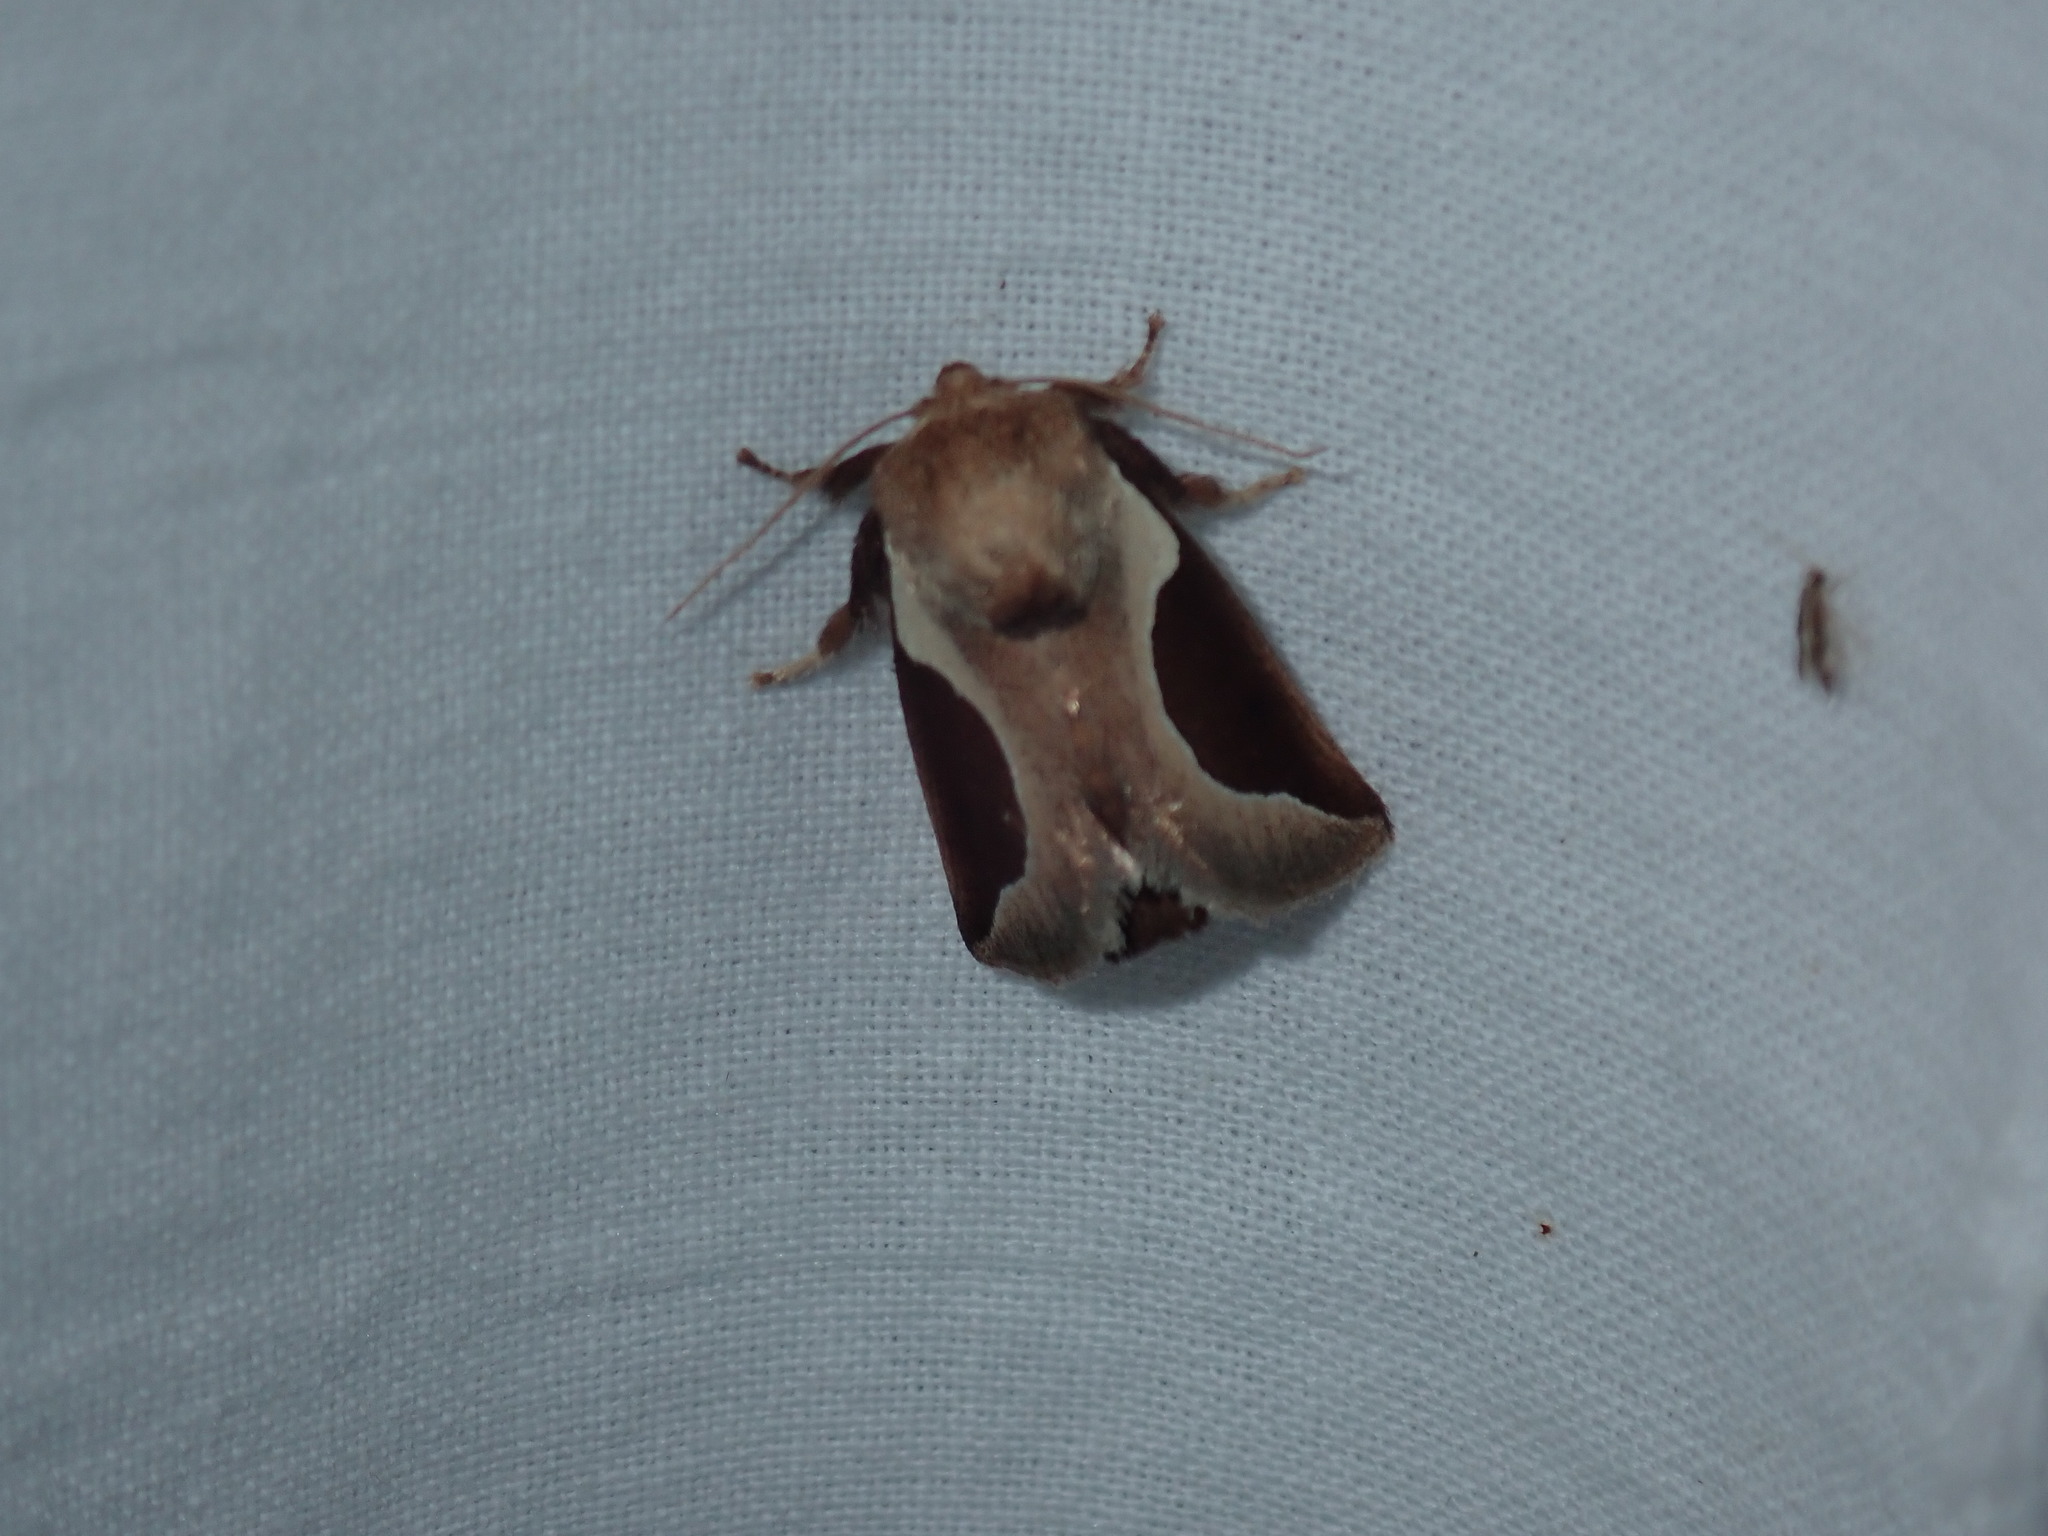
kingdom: Animalia
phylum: Arthropoda
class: Insecta
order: Lepidoptera
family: Limacodidae
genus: Prolimacodes
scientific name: Prolimacodes badia
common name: Skiff moth
